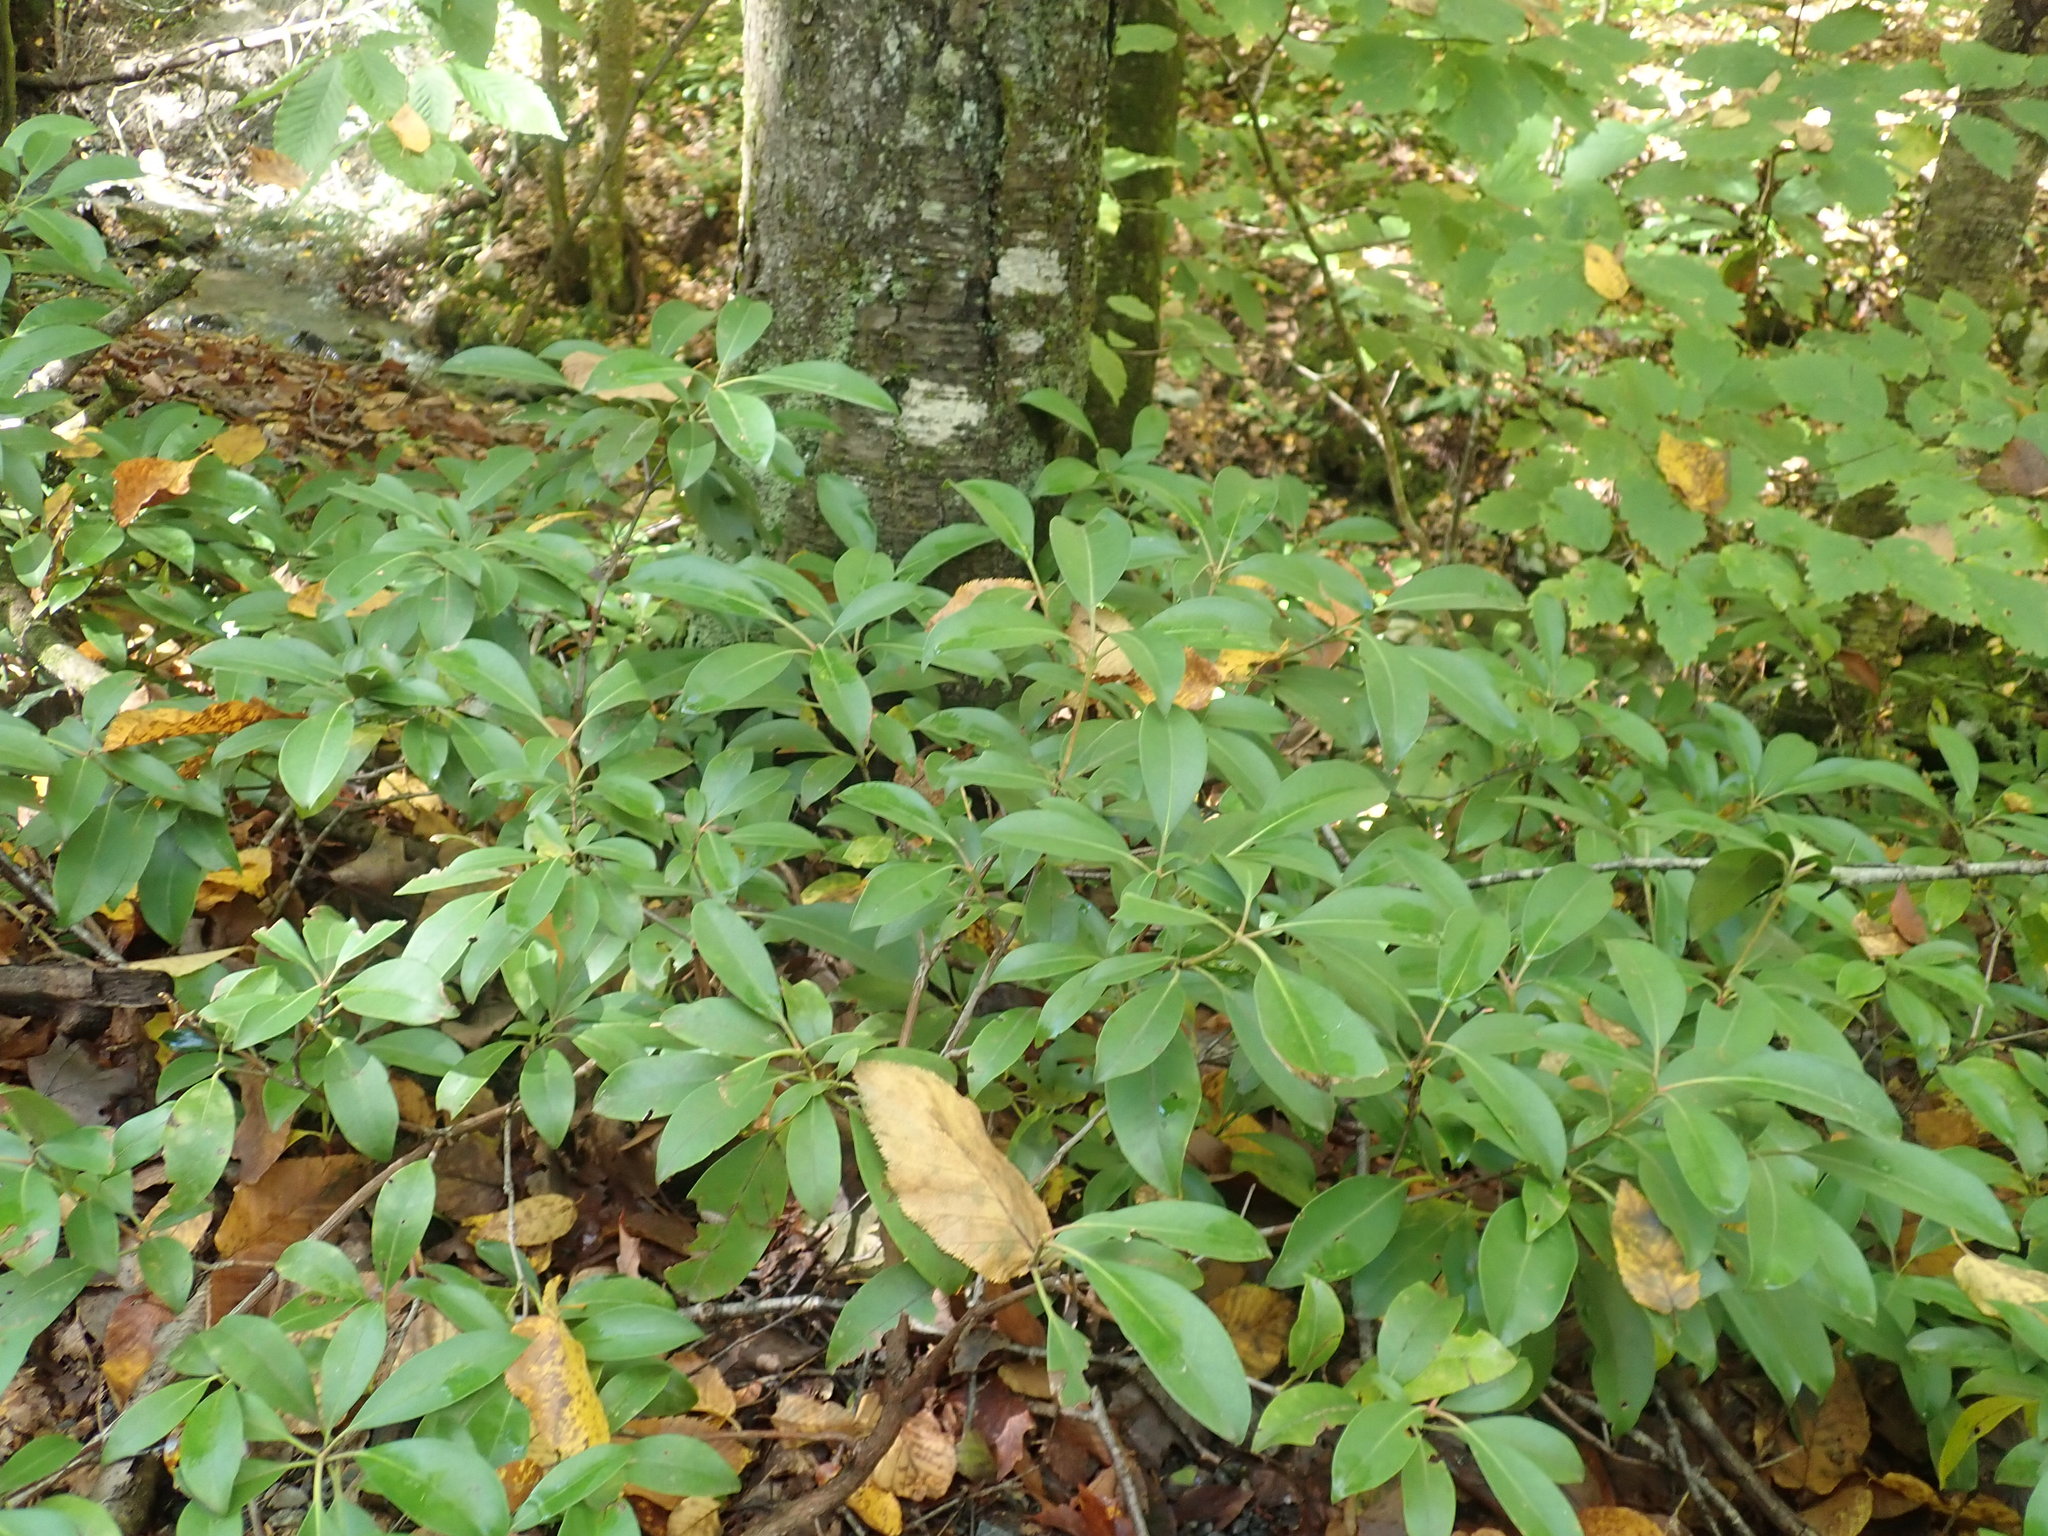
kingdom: Plantae
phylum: Tracheophyta
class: Magnoliopsida
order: Ericales
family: Ericaceae
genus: Kalmia
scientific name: Kalmia latifolia
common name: Mountain-laurel
